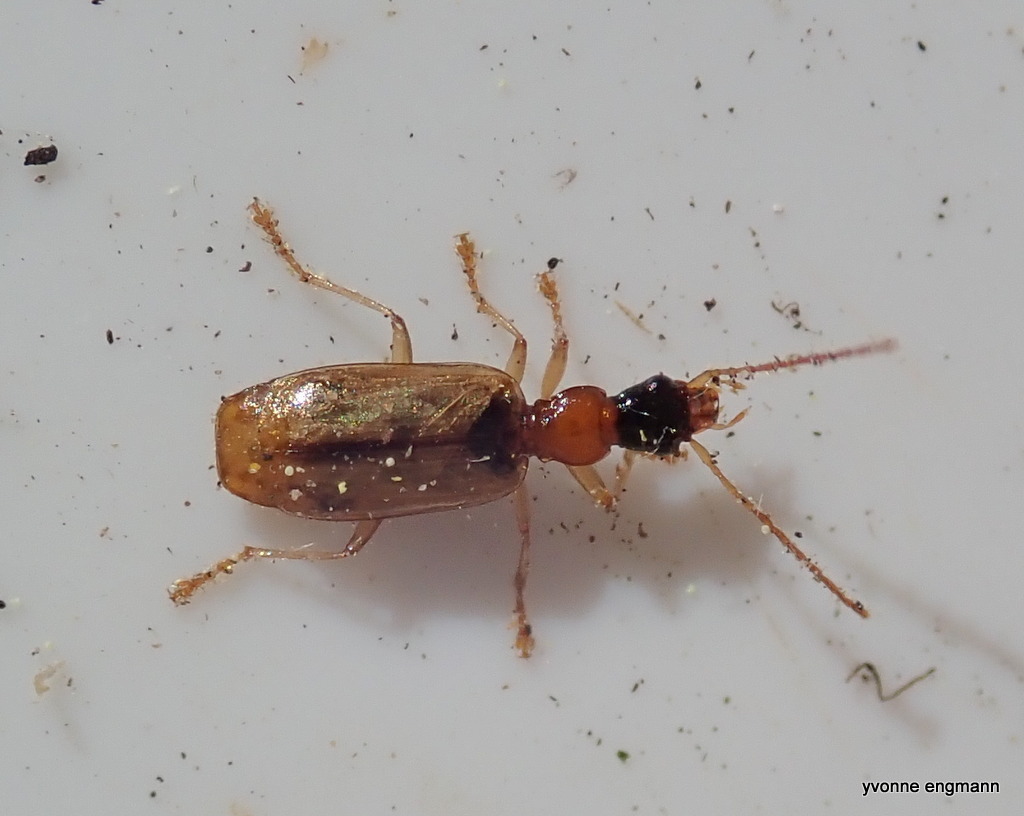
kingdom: Animalia
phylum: Arthropoda
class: Insecta
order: Coleoptera
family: Carabidae
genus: Demetrias
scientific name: Demetrias atricapillus
